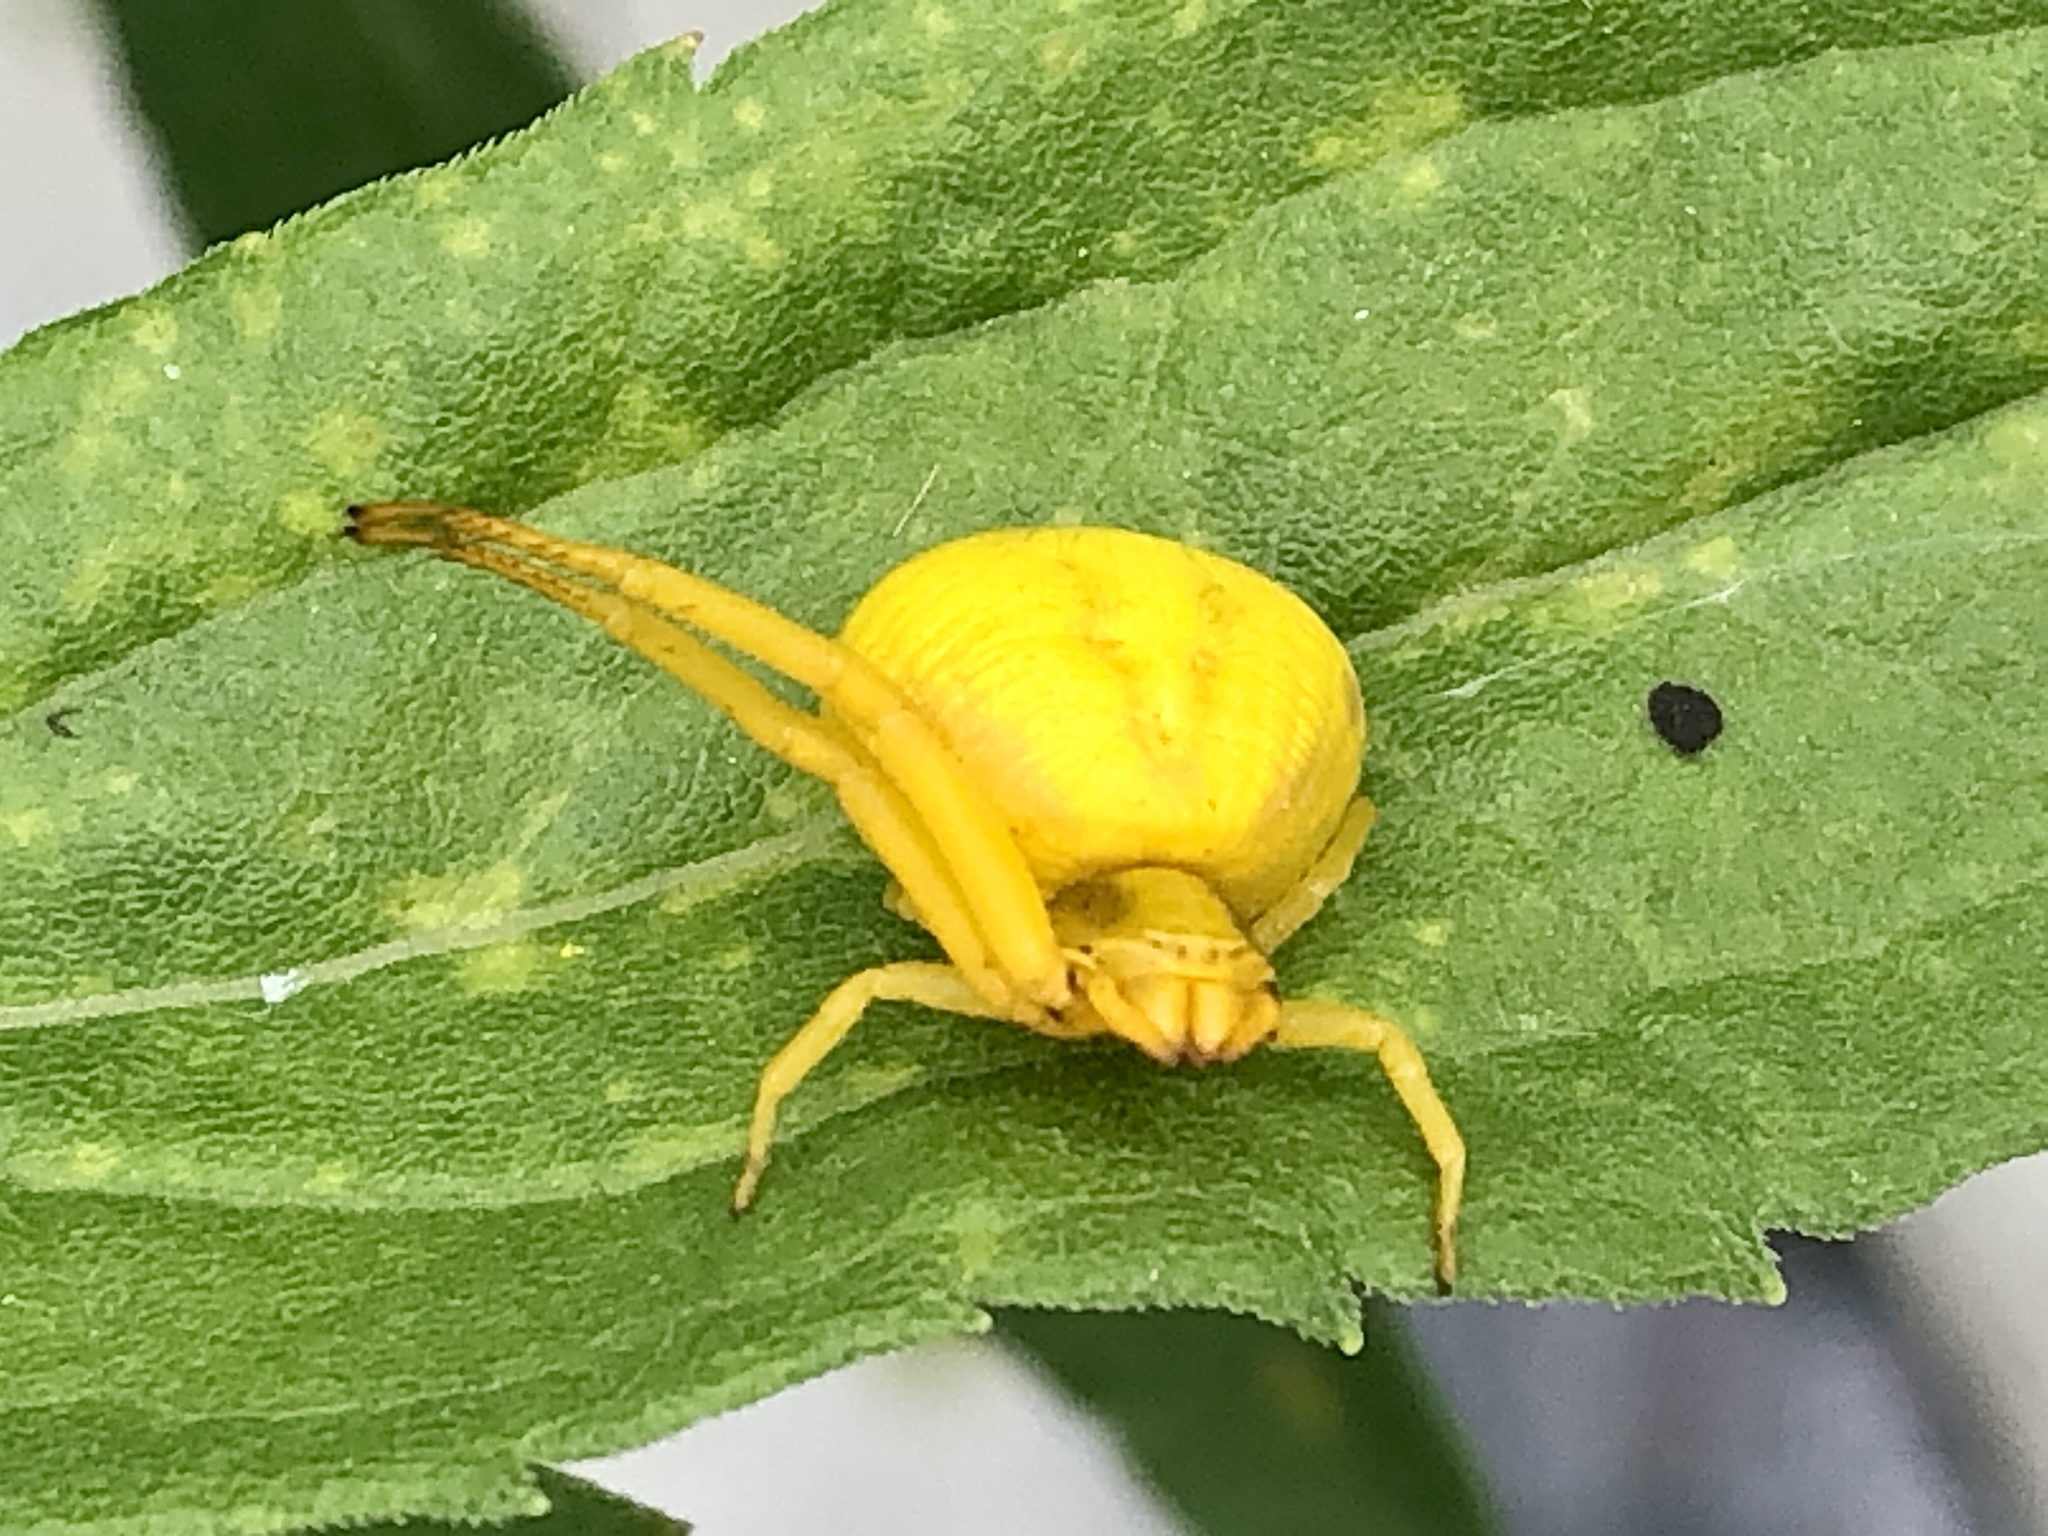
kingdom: Animalia
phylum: Arthropoda
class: Arachnida
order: Araneae
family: Thomisidae
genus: Misumenoides
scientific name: Misumenoides formosipes
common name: White-banded crab spider
